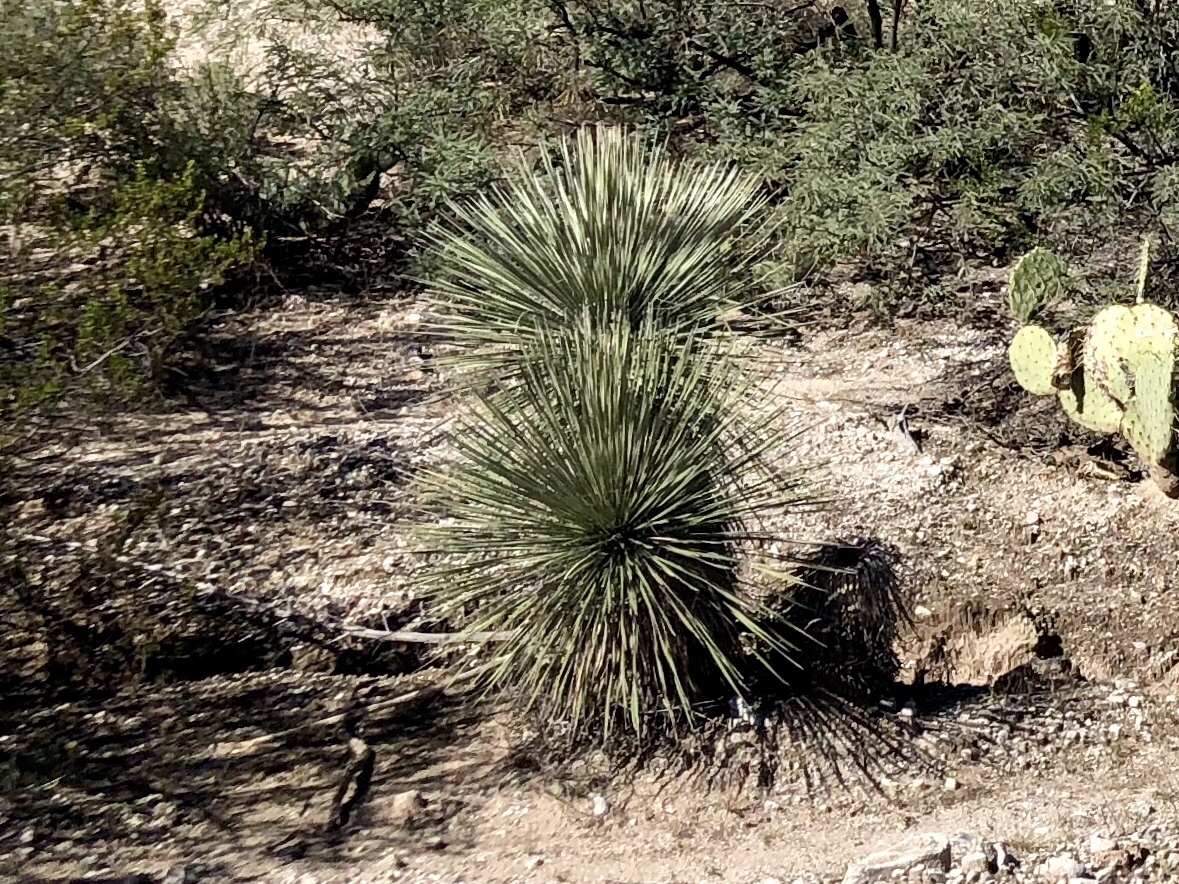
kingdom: Plantae
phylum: Tracheophyta
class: Liliopsida
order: Asparagales
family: Asparagaceae
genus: Yucca
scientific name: Yucca elata
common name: Palmella
